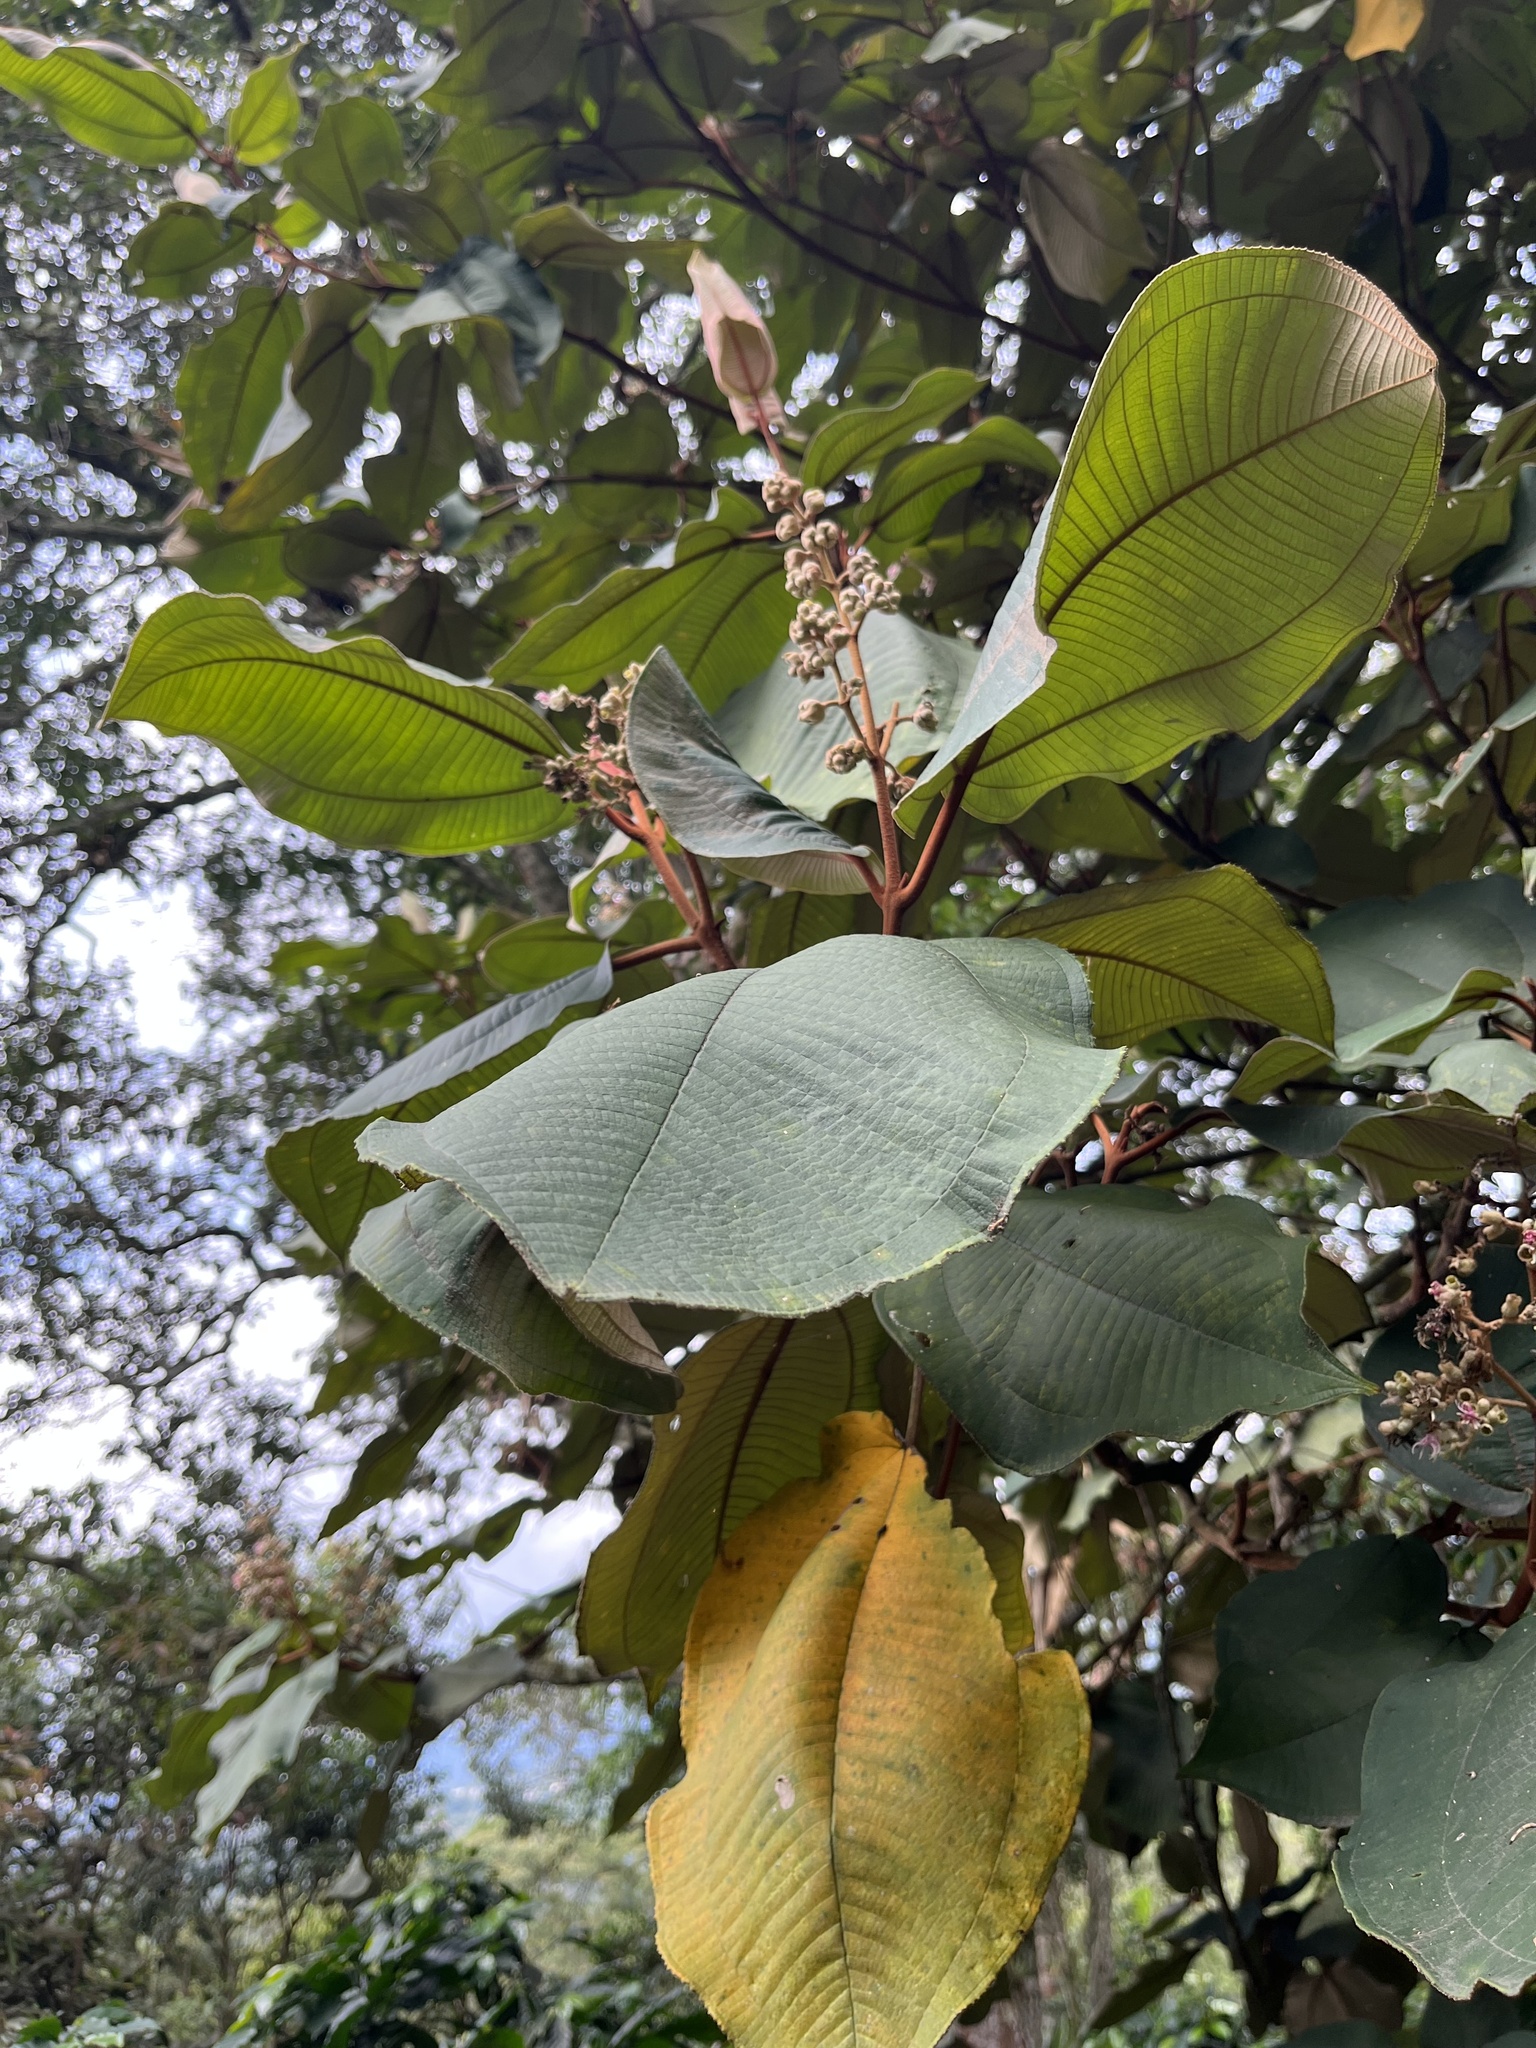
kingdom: Plantae
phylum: Tracheophyta
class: Magnoliopsida
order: Myrtales
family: Melastomataceae
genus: Miconia
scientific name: Miconia bubalina
